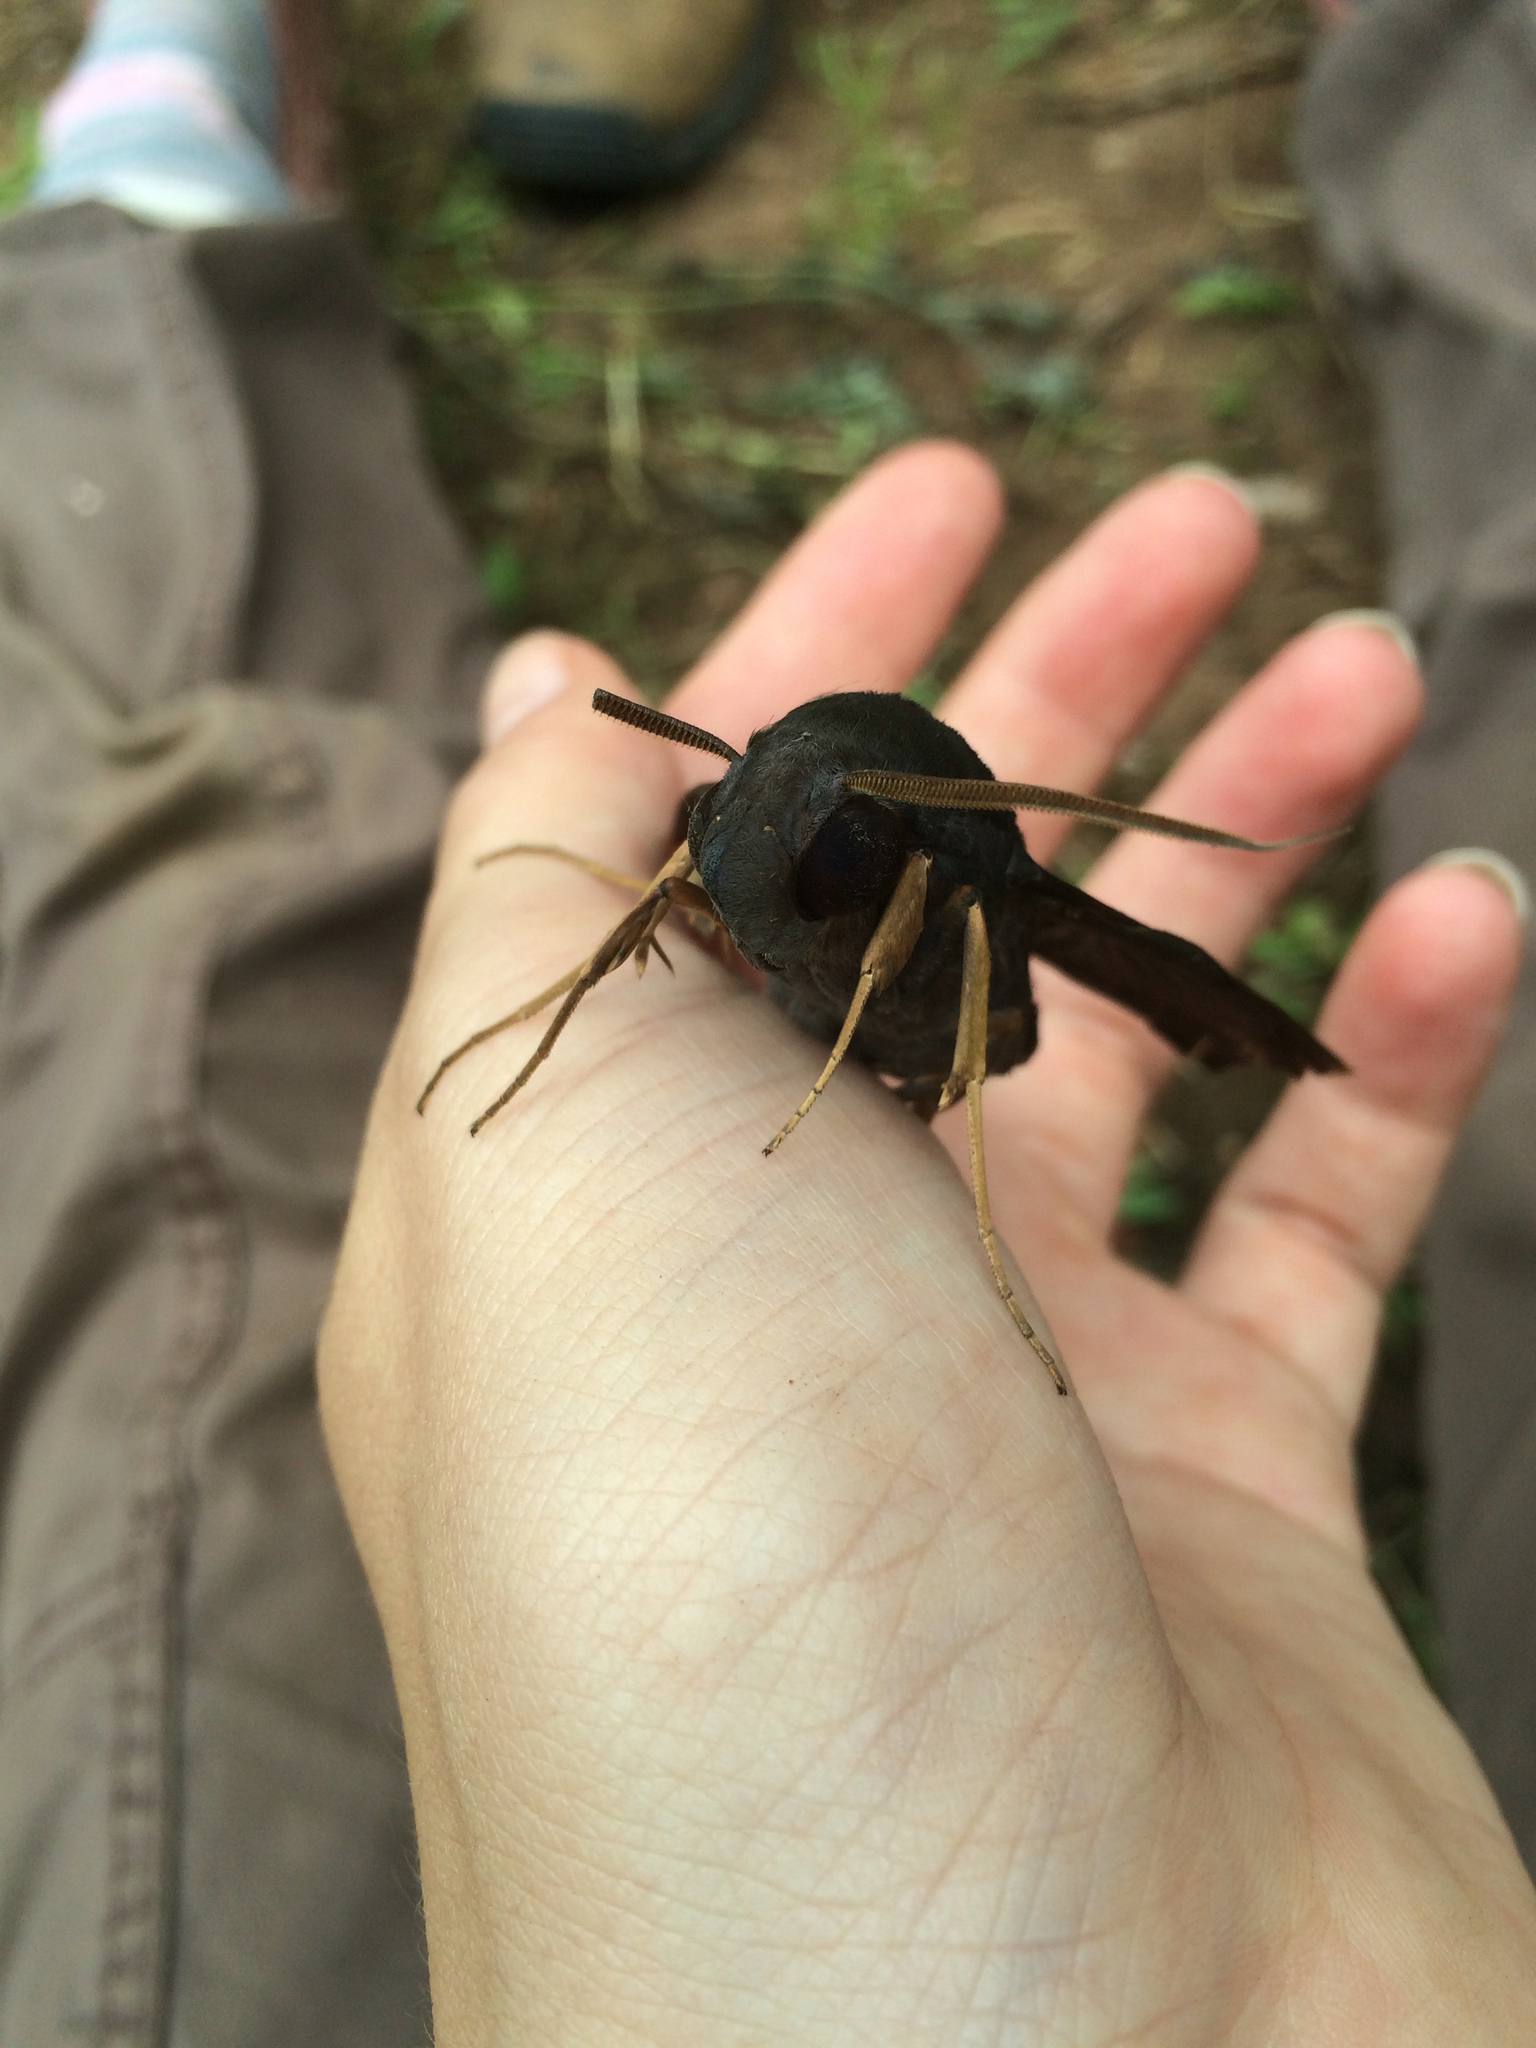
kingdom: Animalia
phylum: Arthropoda
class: Insecta
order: Lepidoptera
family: Sphingidae
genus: Nephele
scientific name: Nephele aequivalens
